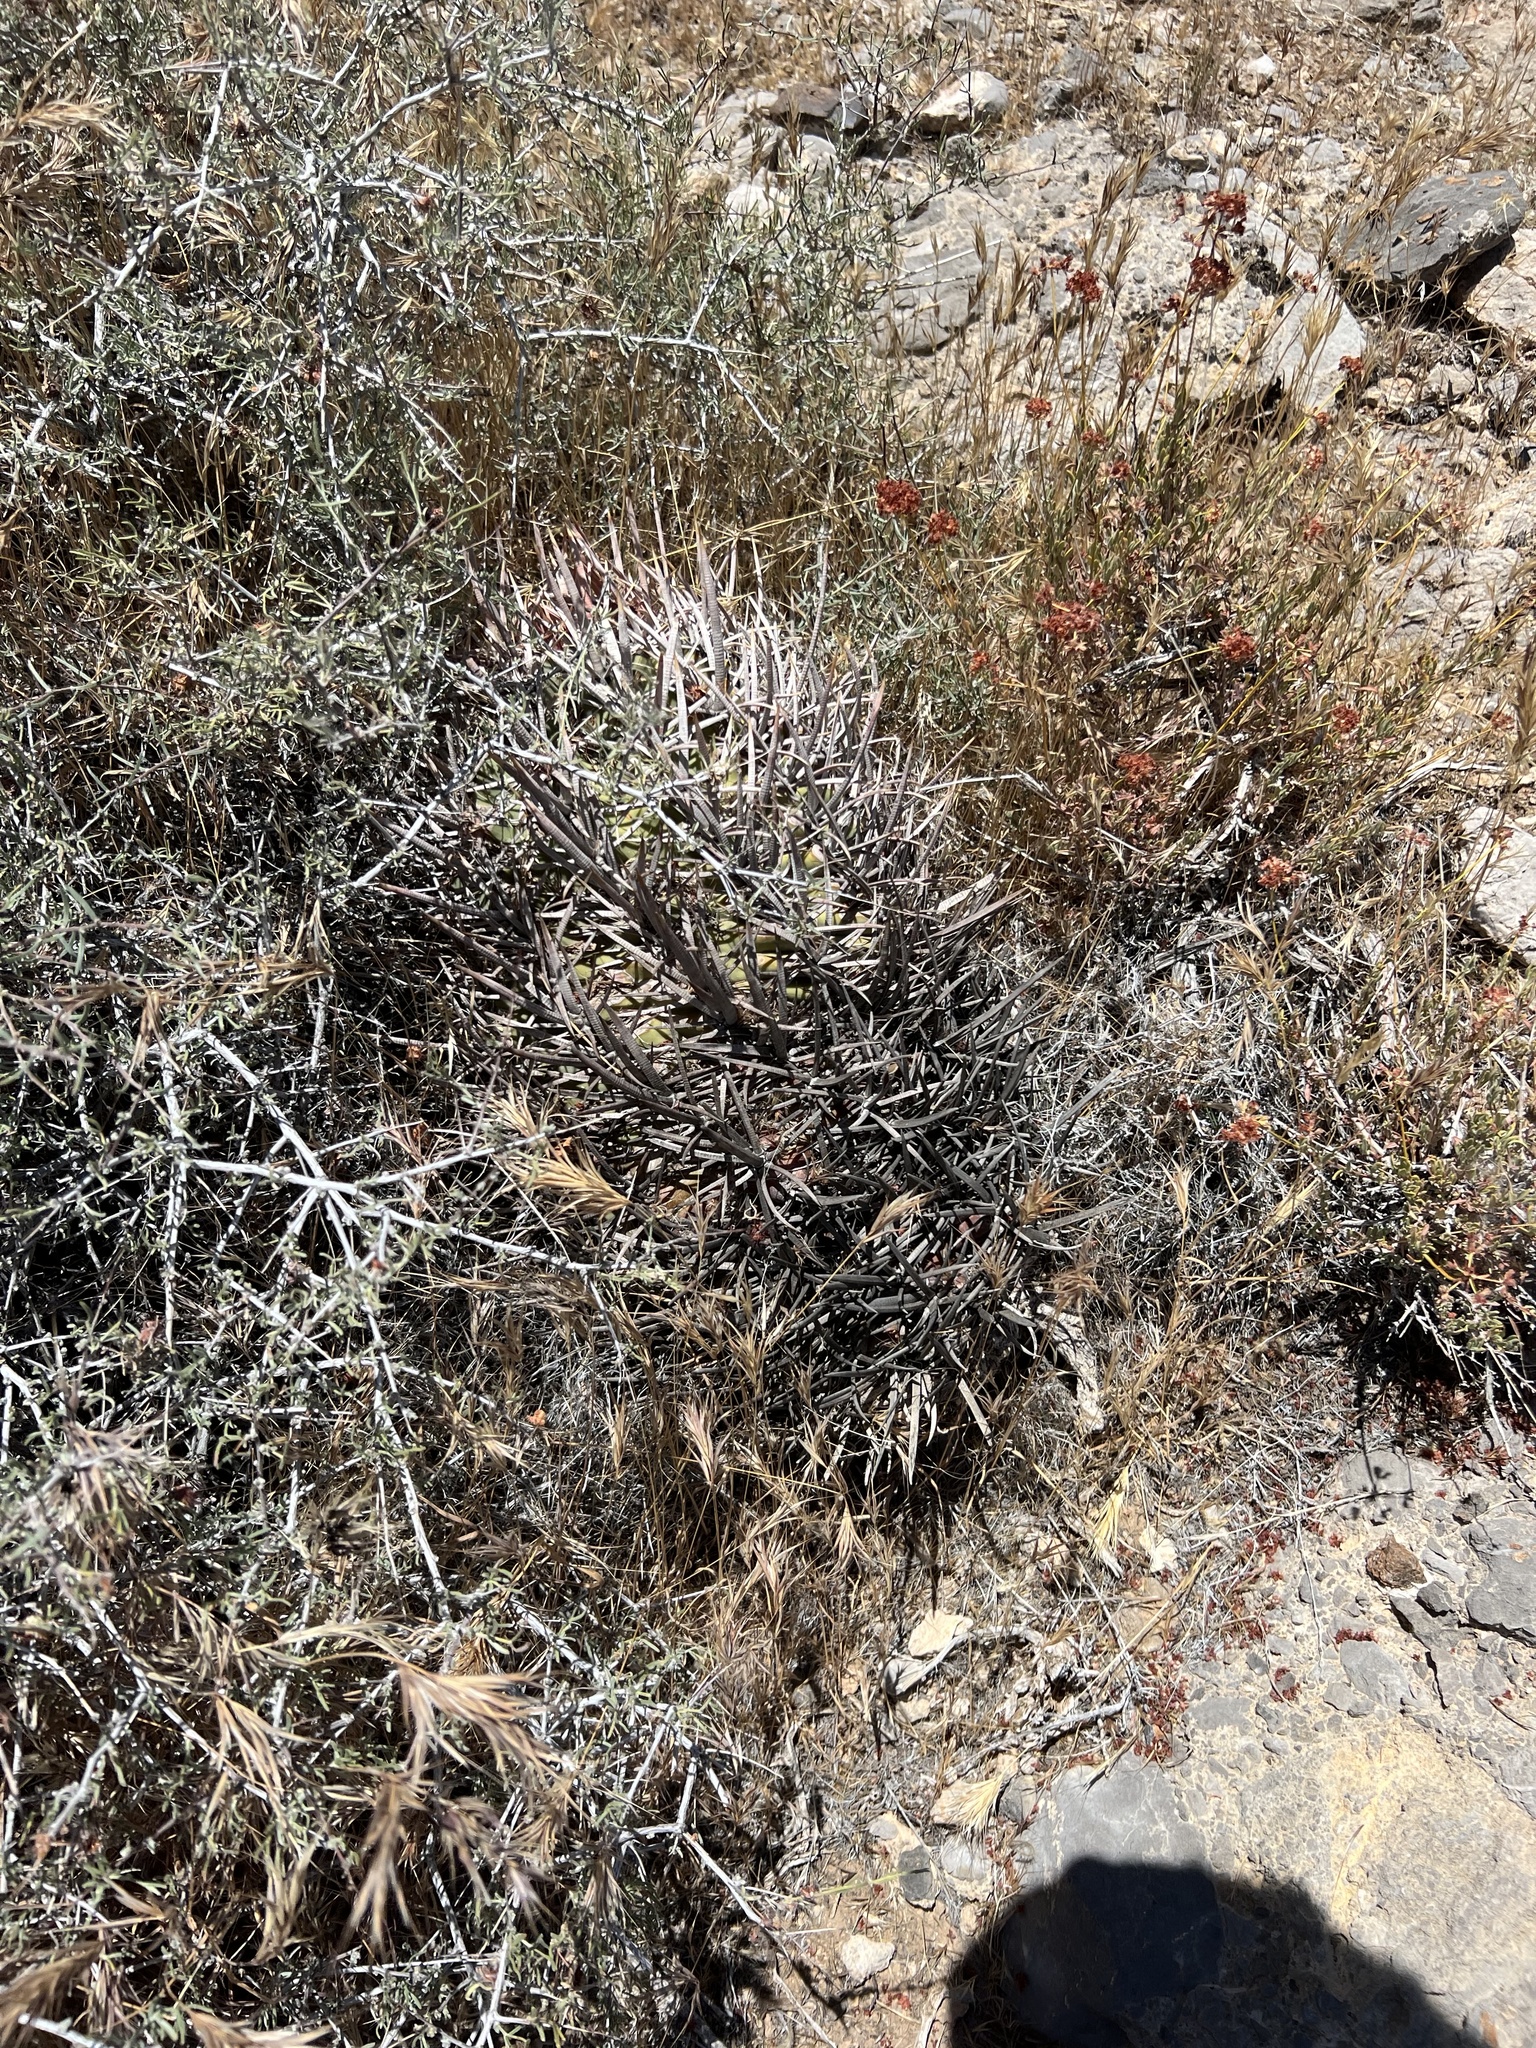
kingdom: Plantae
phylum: Tracheophyta
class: Magnoliopsida
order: Caryophyllales
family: Cactaceae
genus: Echinocactus
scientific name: Echinocactus polycephalus
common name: Cottontop cactus
